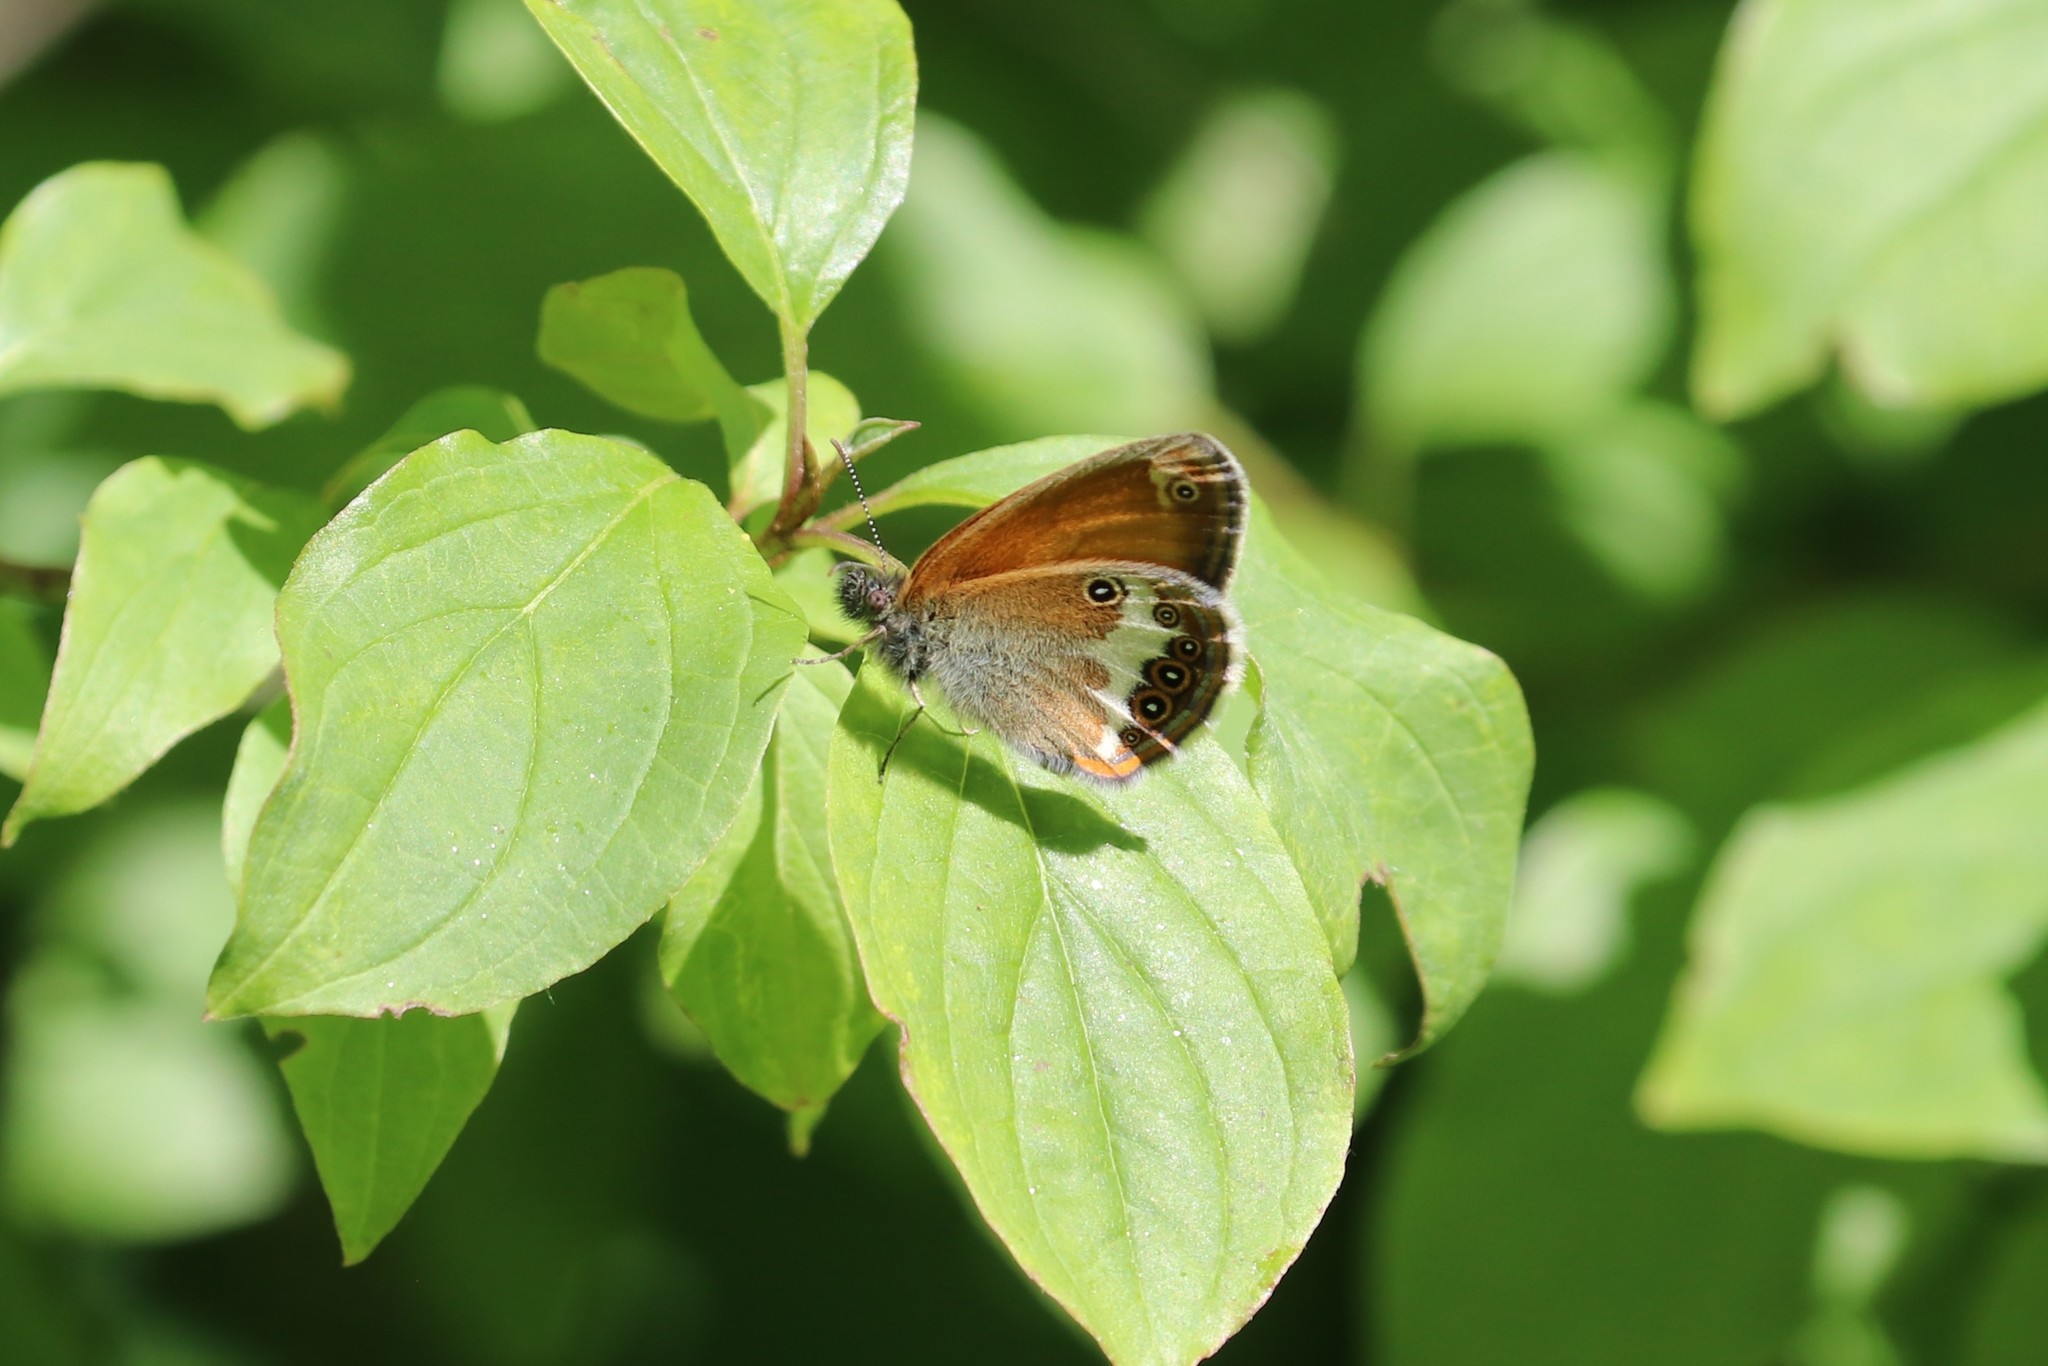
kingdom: Animalia
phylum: Arthropoda
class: Insecta
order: Lepidoptera
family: Nymphalidae
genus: Coenonympha
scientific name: Coenonympha arcania
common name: Pearly heath
